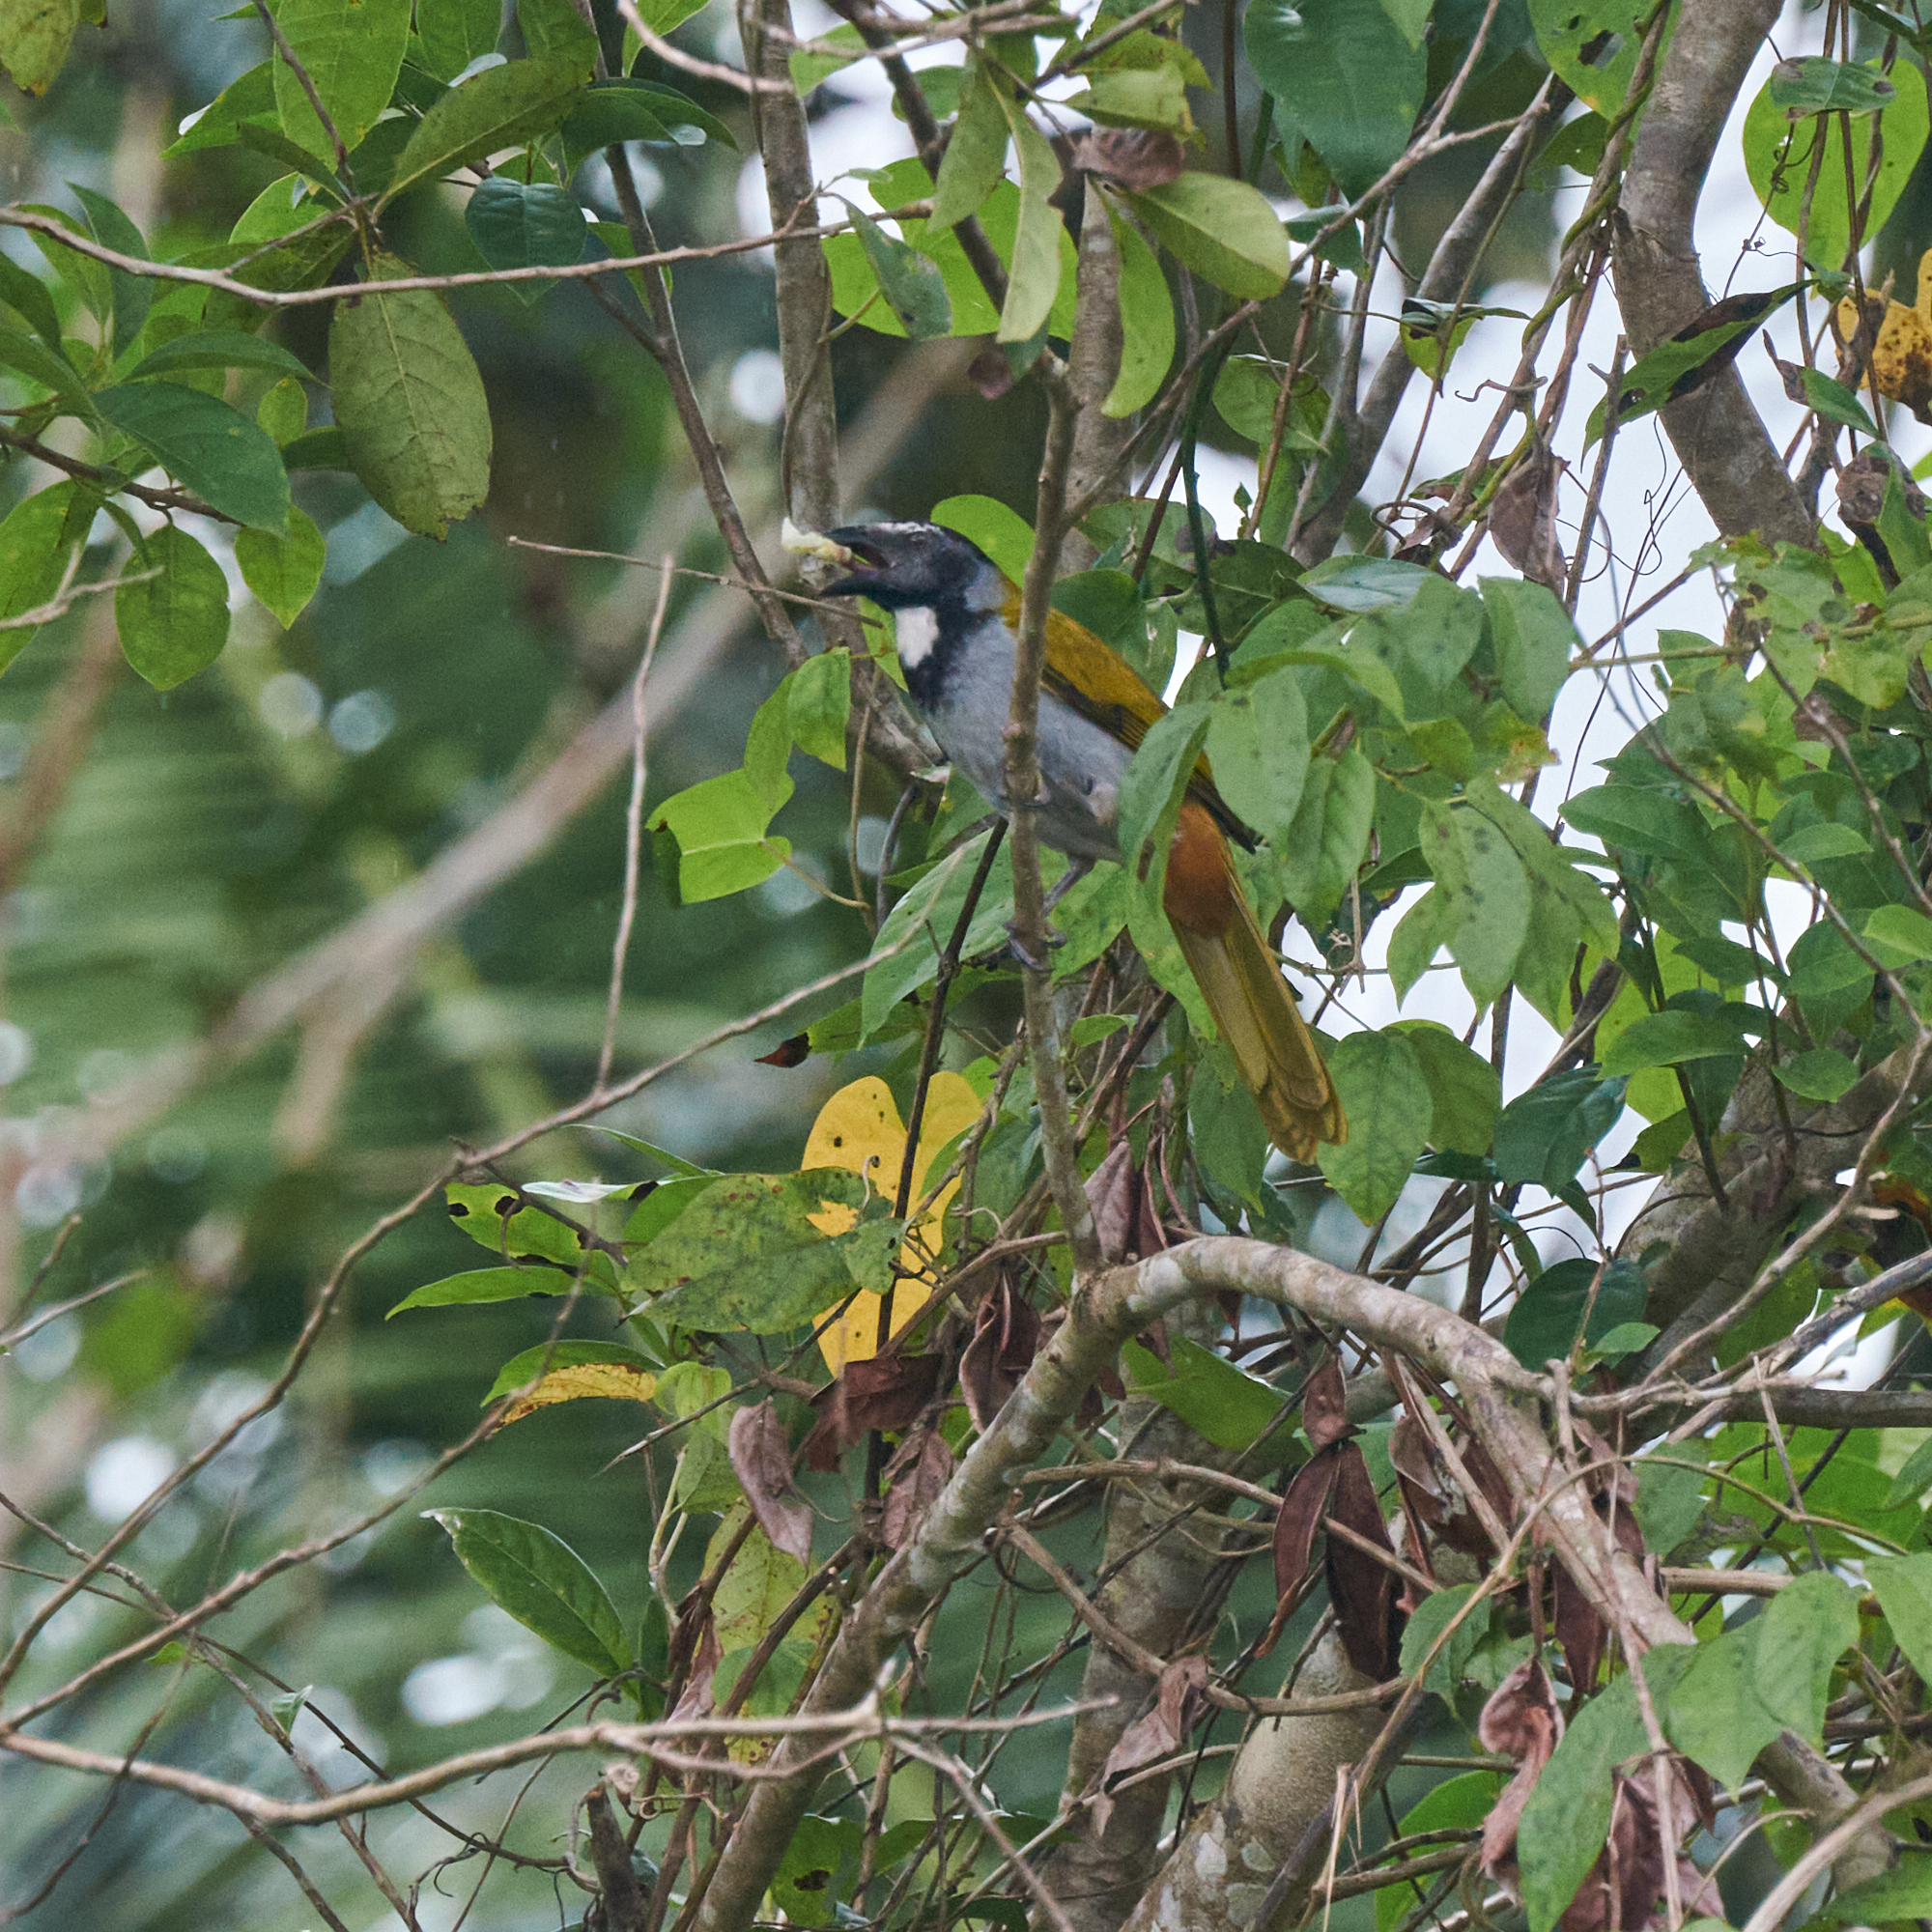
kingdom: Animalia
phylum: Chordata
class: Aves
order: Passeriformes
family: Thraupidae
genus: Saltator
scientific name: Saltator atriceps
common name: Black-headed saltator
